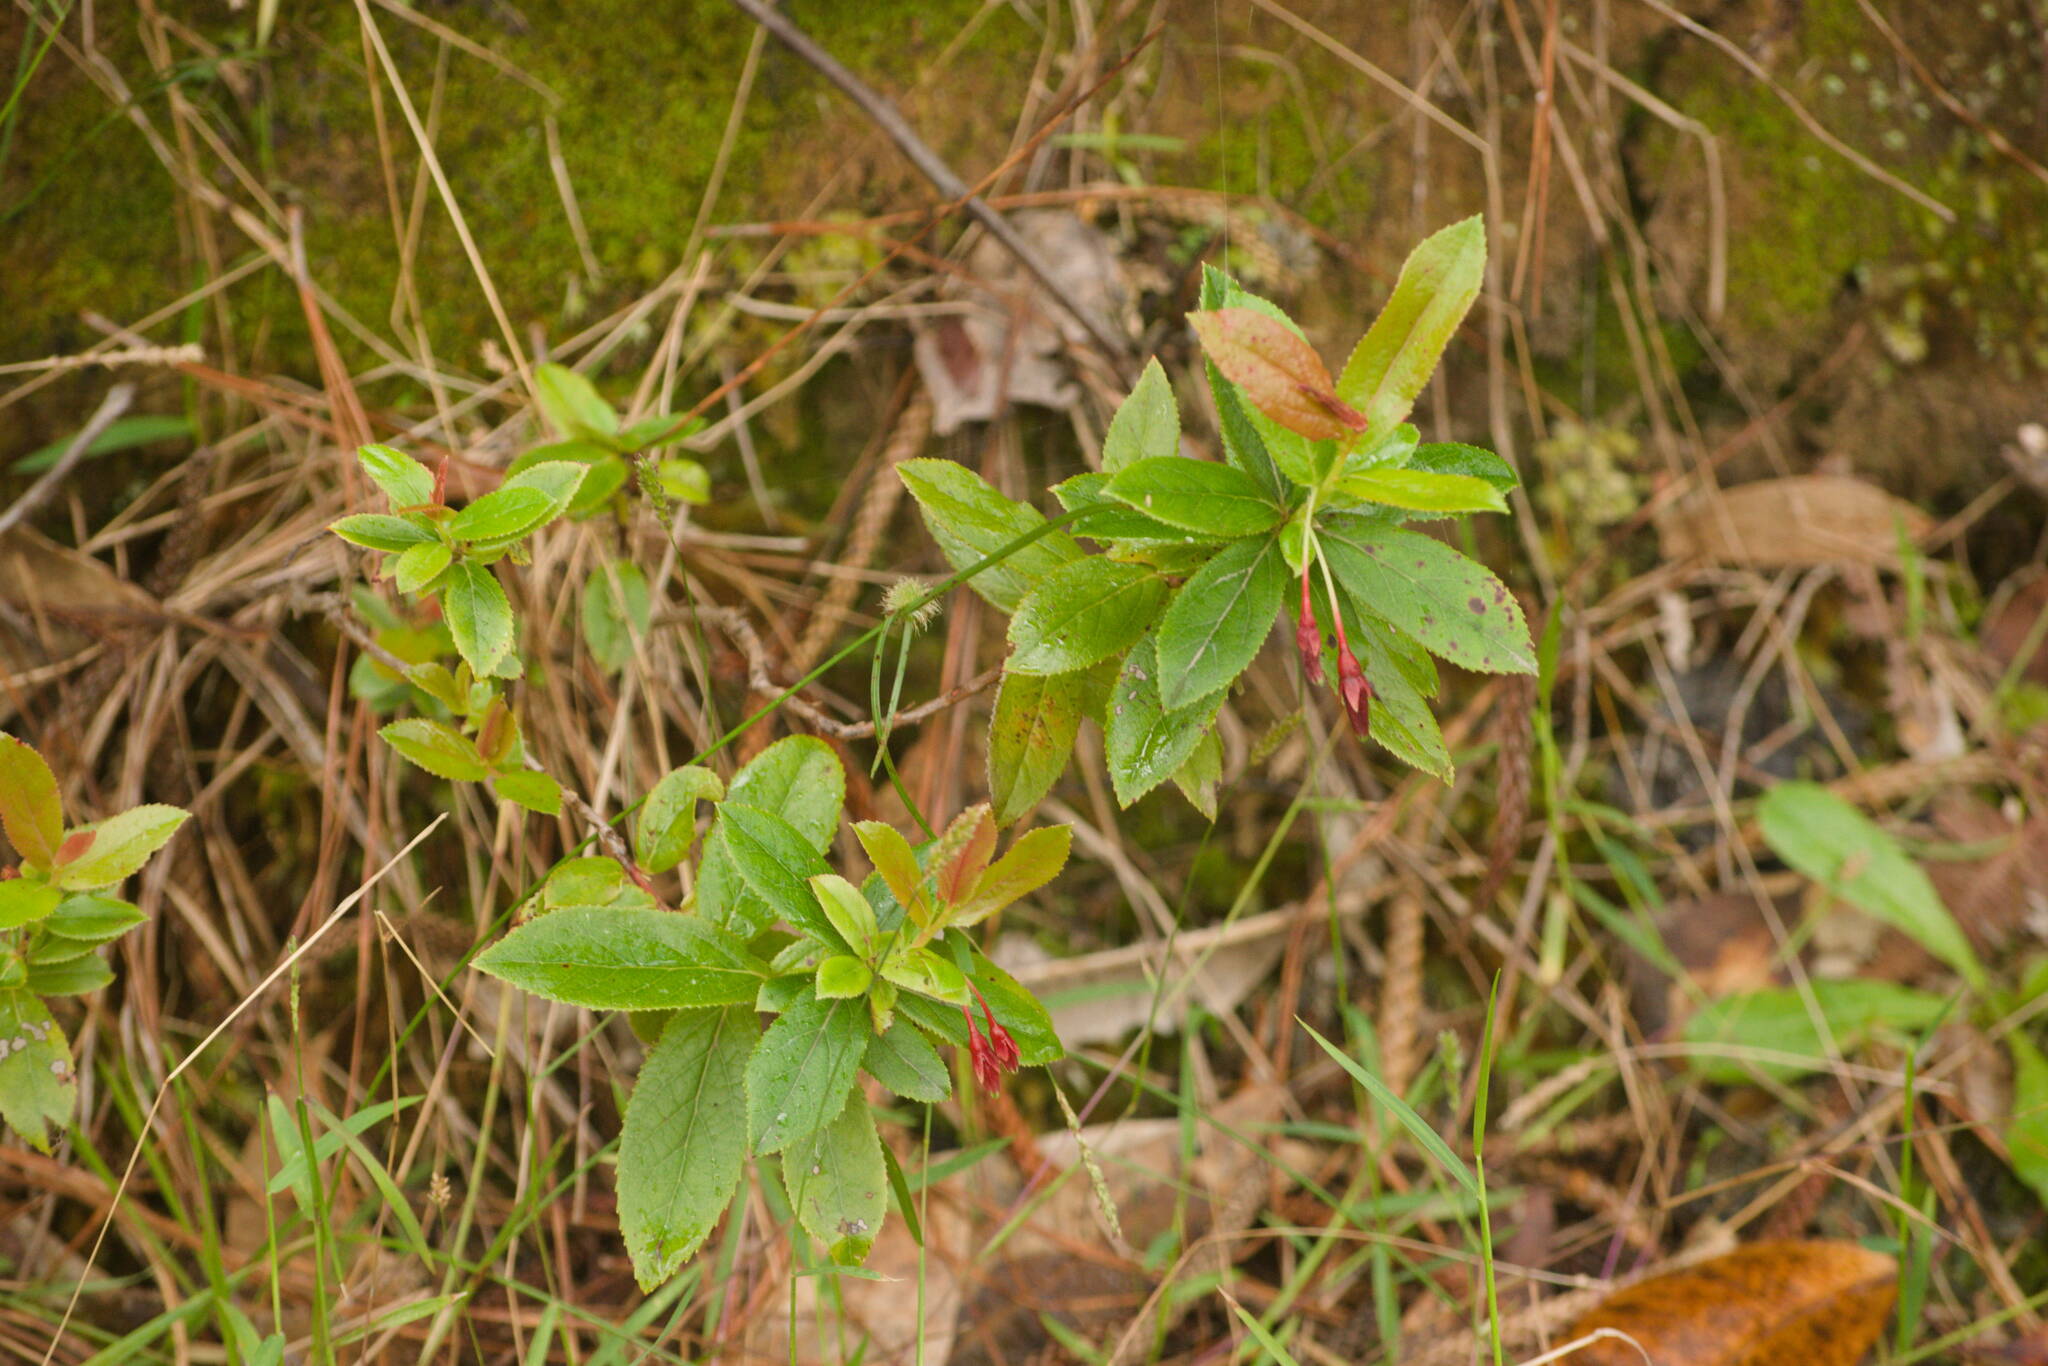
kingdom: Plantae
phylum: Tracheophyta
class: Magnoliopsida
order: Ericales
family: Ericaceae
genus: Vaccinium
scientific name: Vaccinium dentatum
